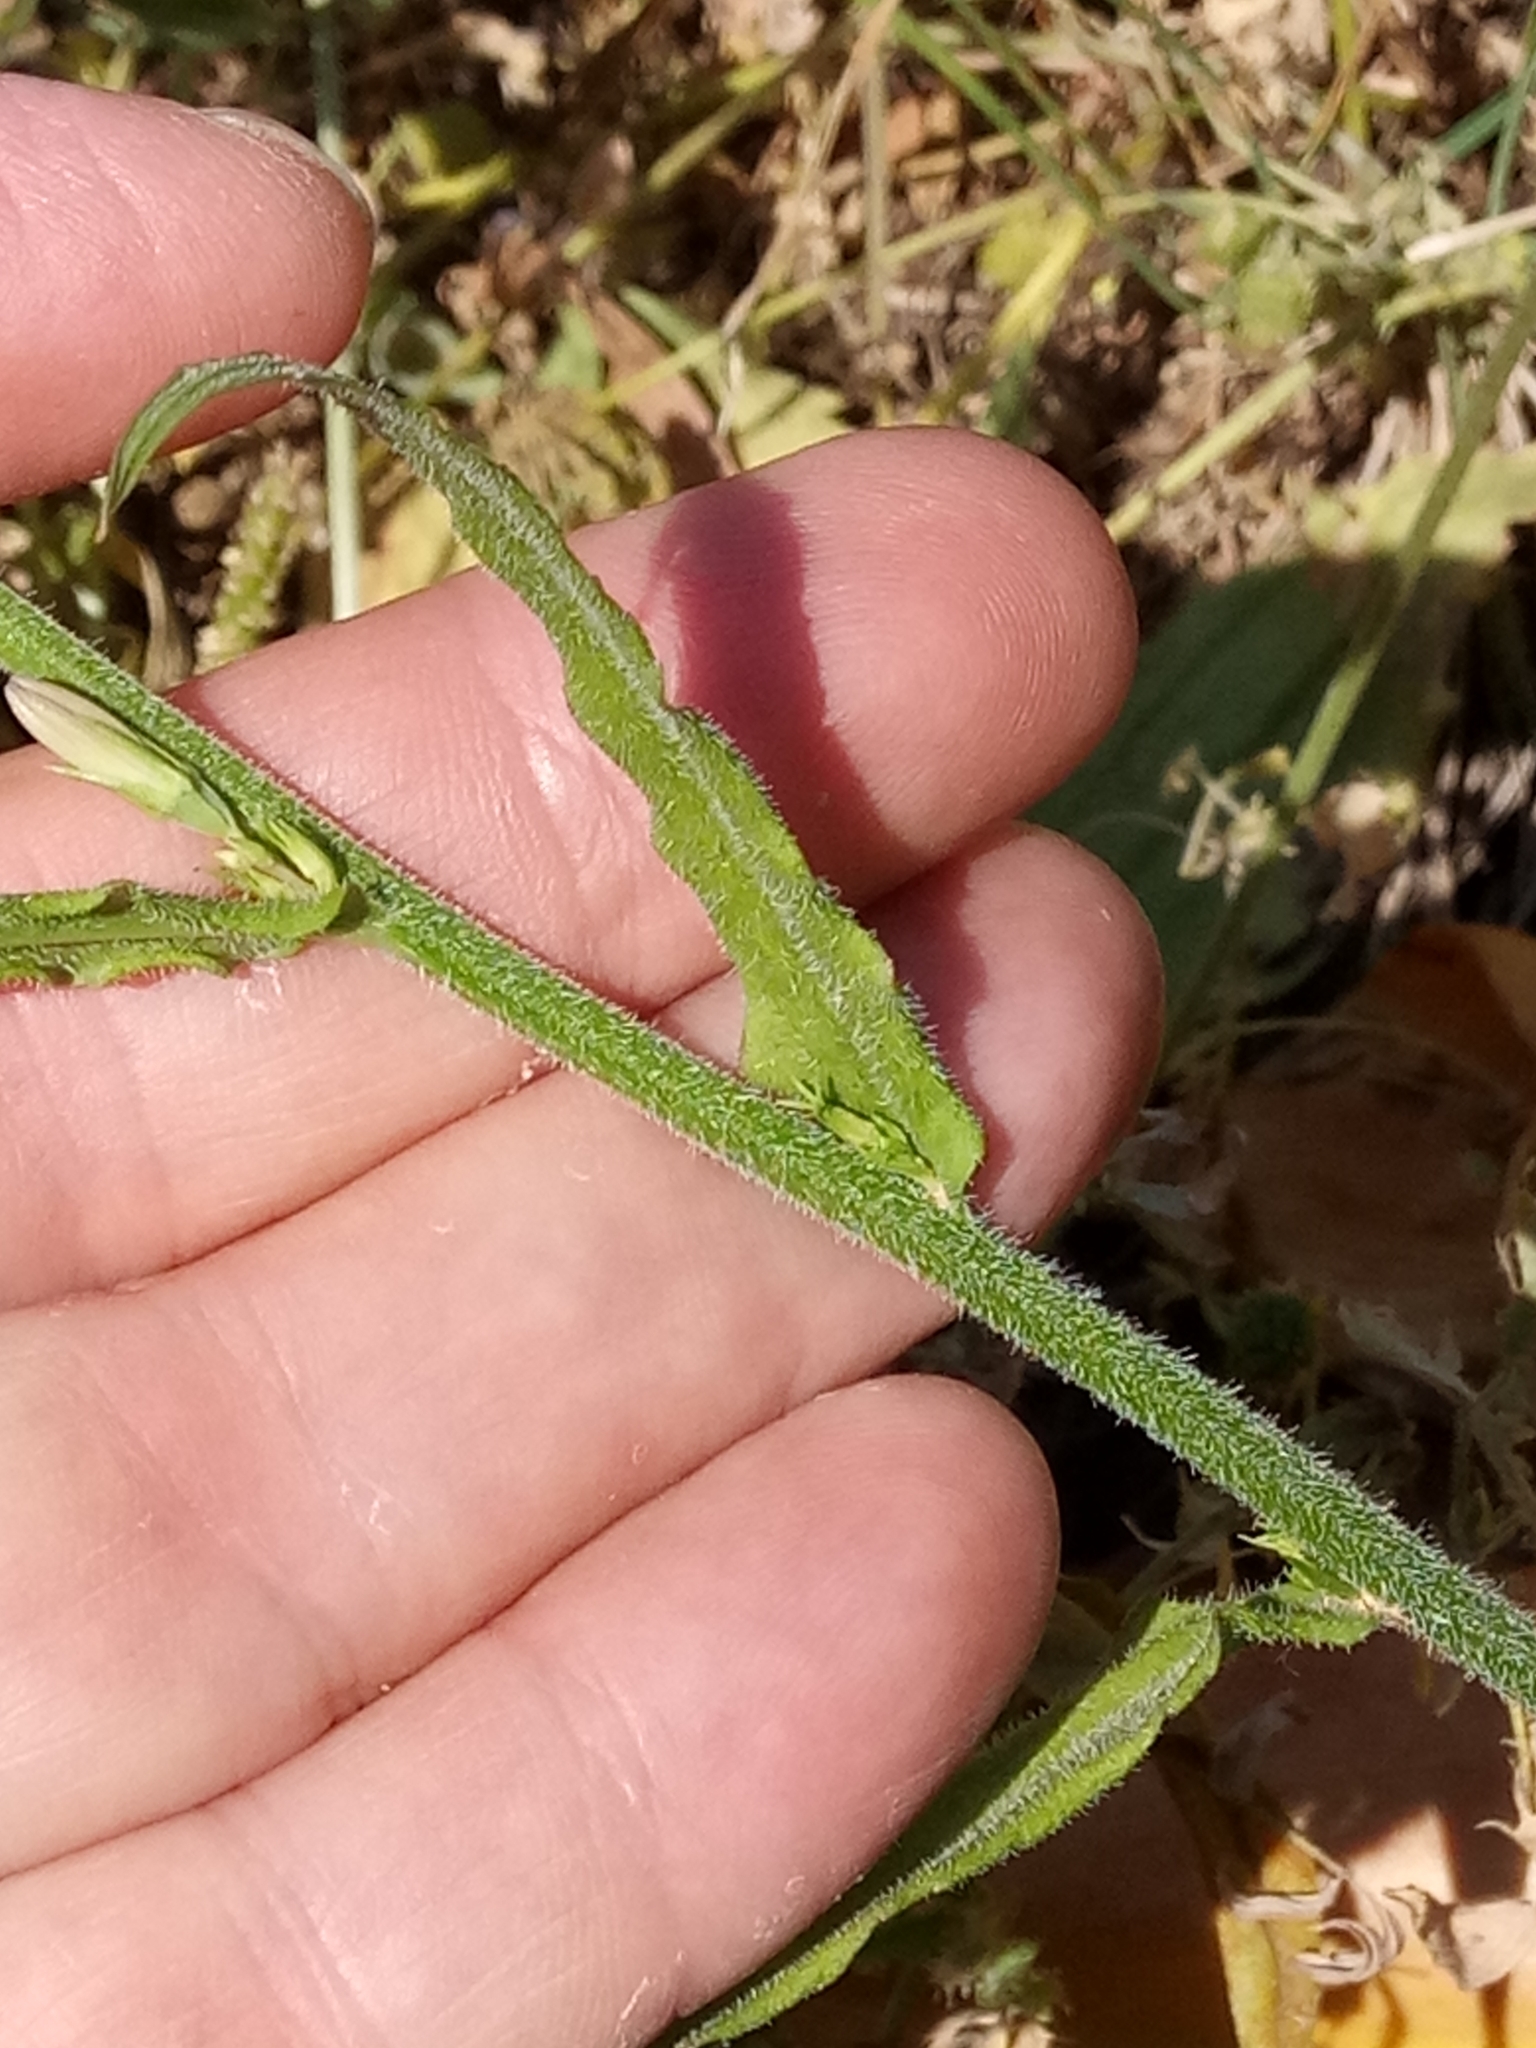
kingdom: Plantae
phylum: Tracheophyta
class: Magnoliopsida
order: Asterales
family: Campanulaceae
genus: Campanula
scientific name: Campanula rapunculus
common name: Rampion bellflower
